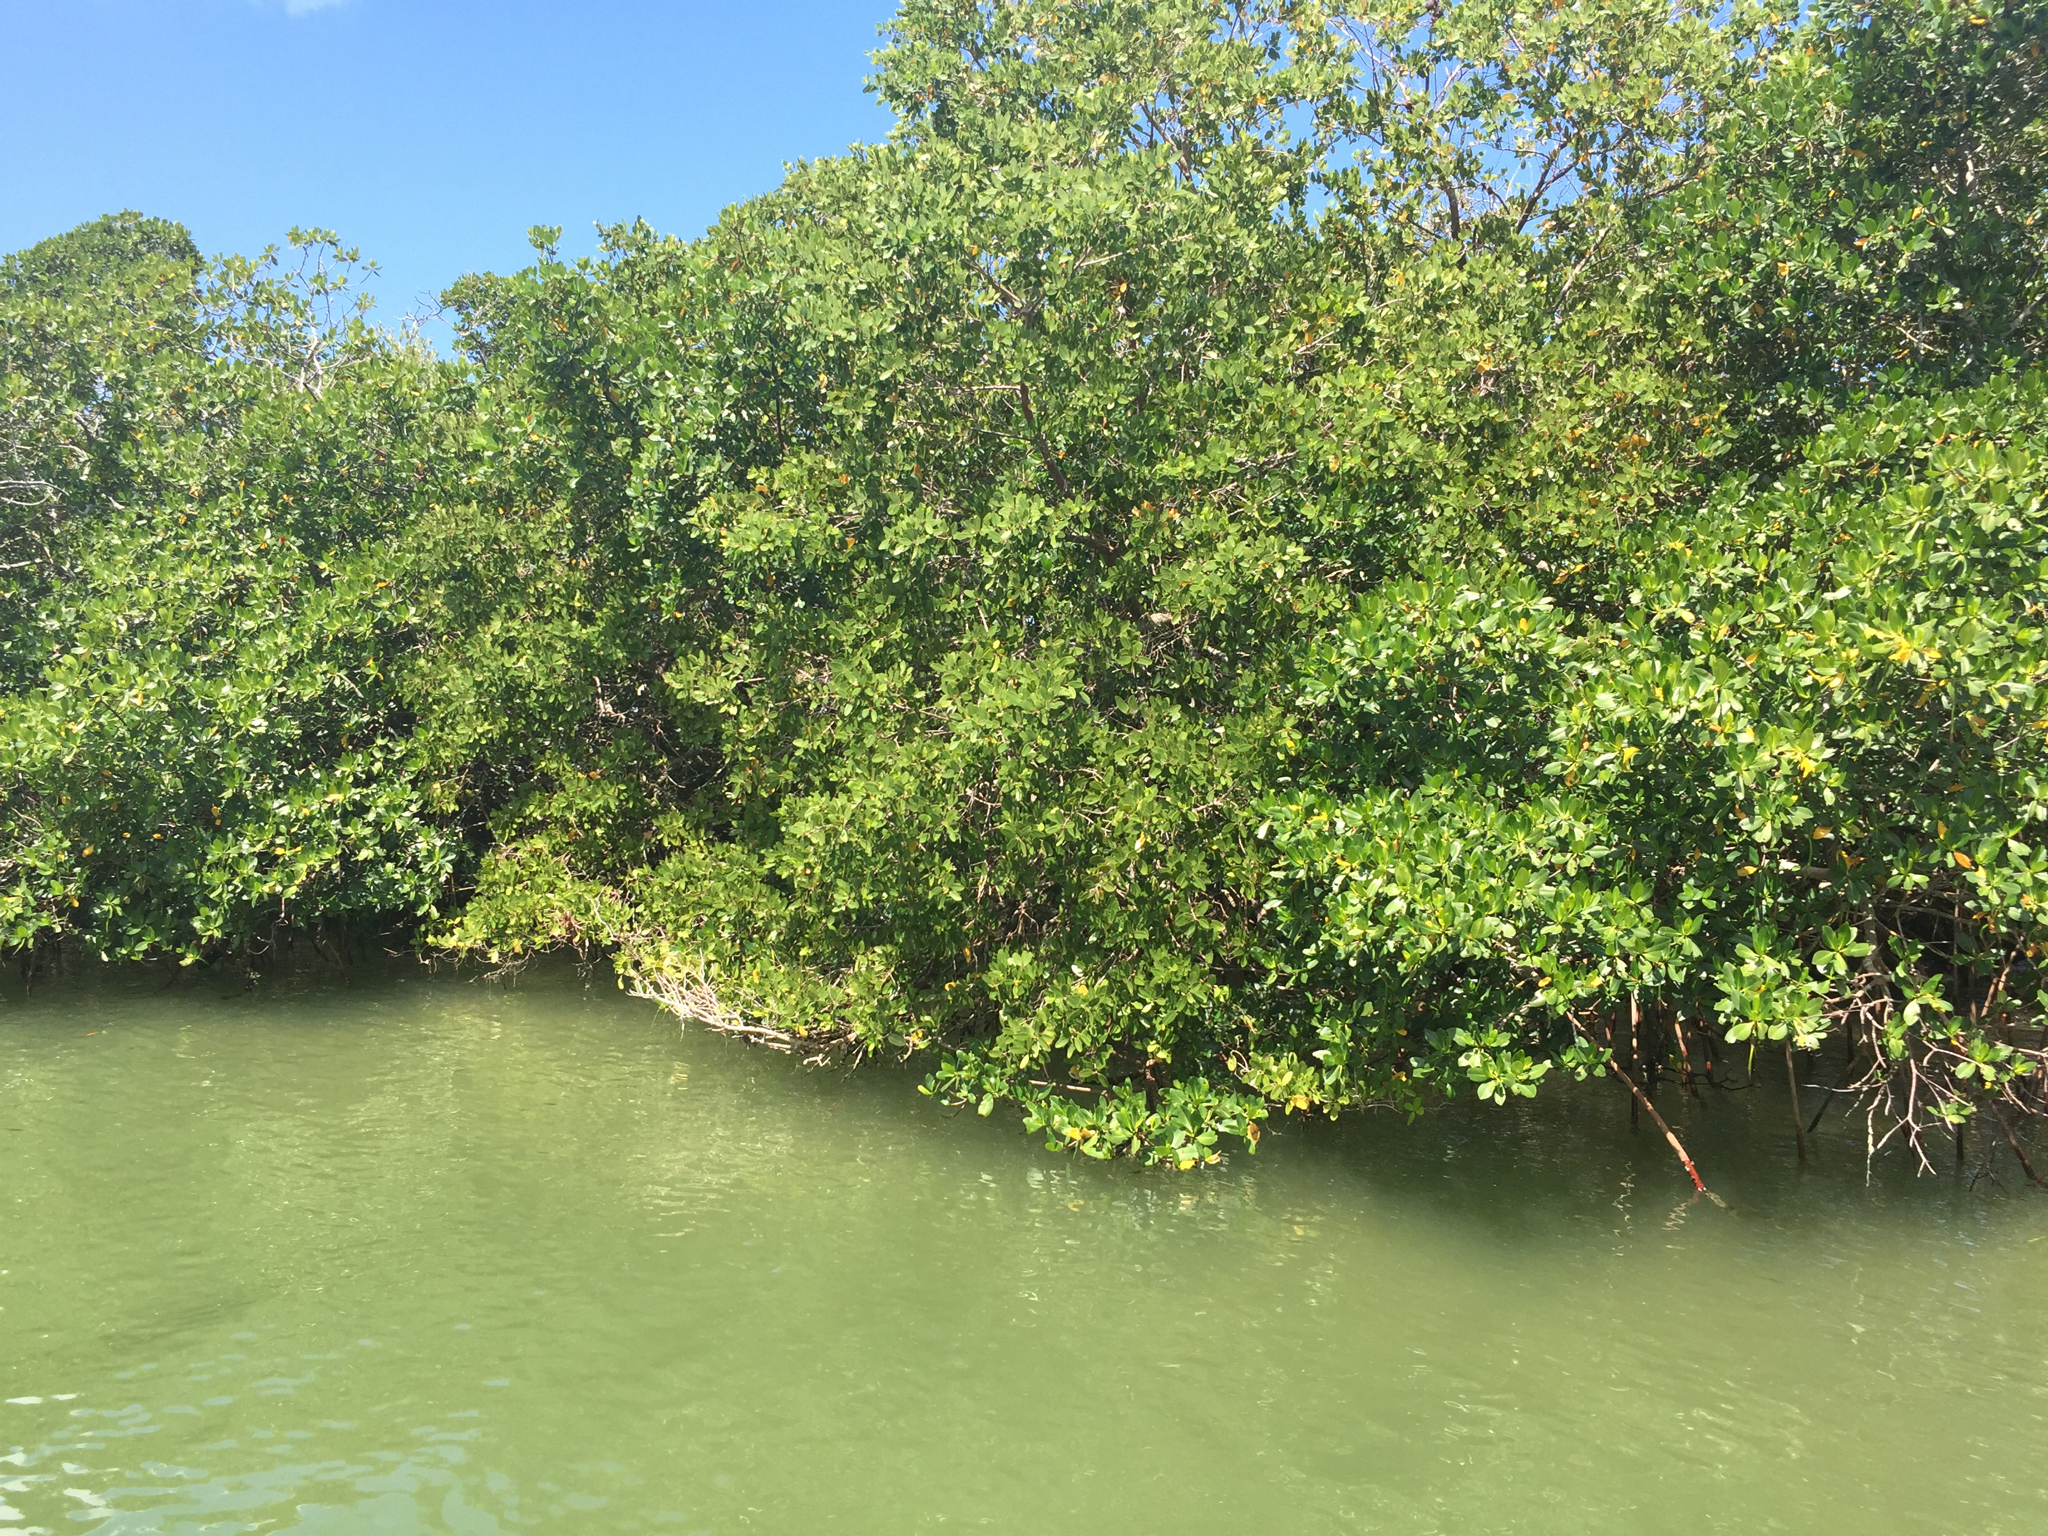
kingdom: Plantae
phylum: Tracheophyta
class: Magnoliopsida
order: Malpighiales
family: Rhizophoraceae
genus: Rhizophora
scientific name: Rhizophora mangle
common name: Red mangrove
